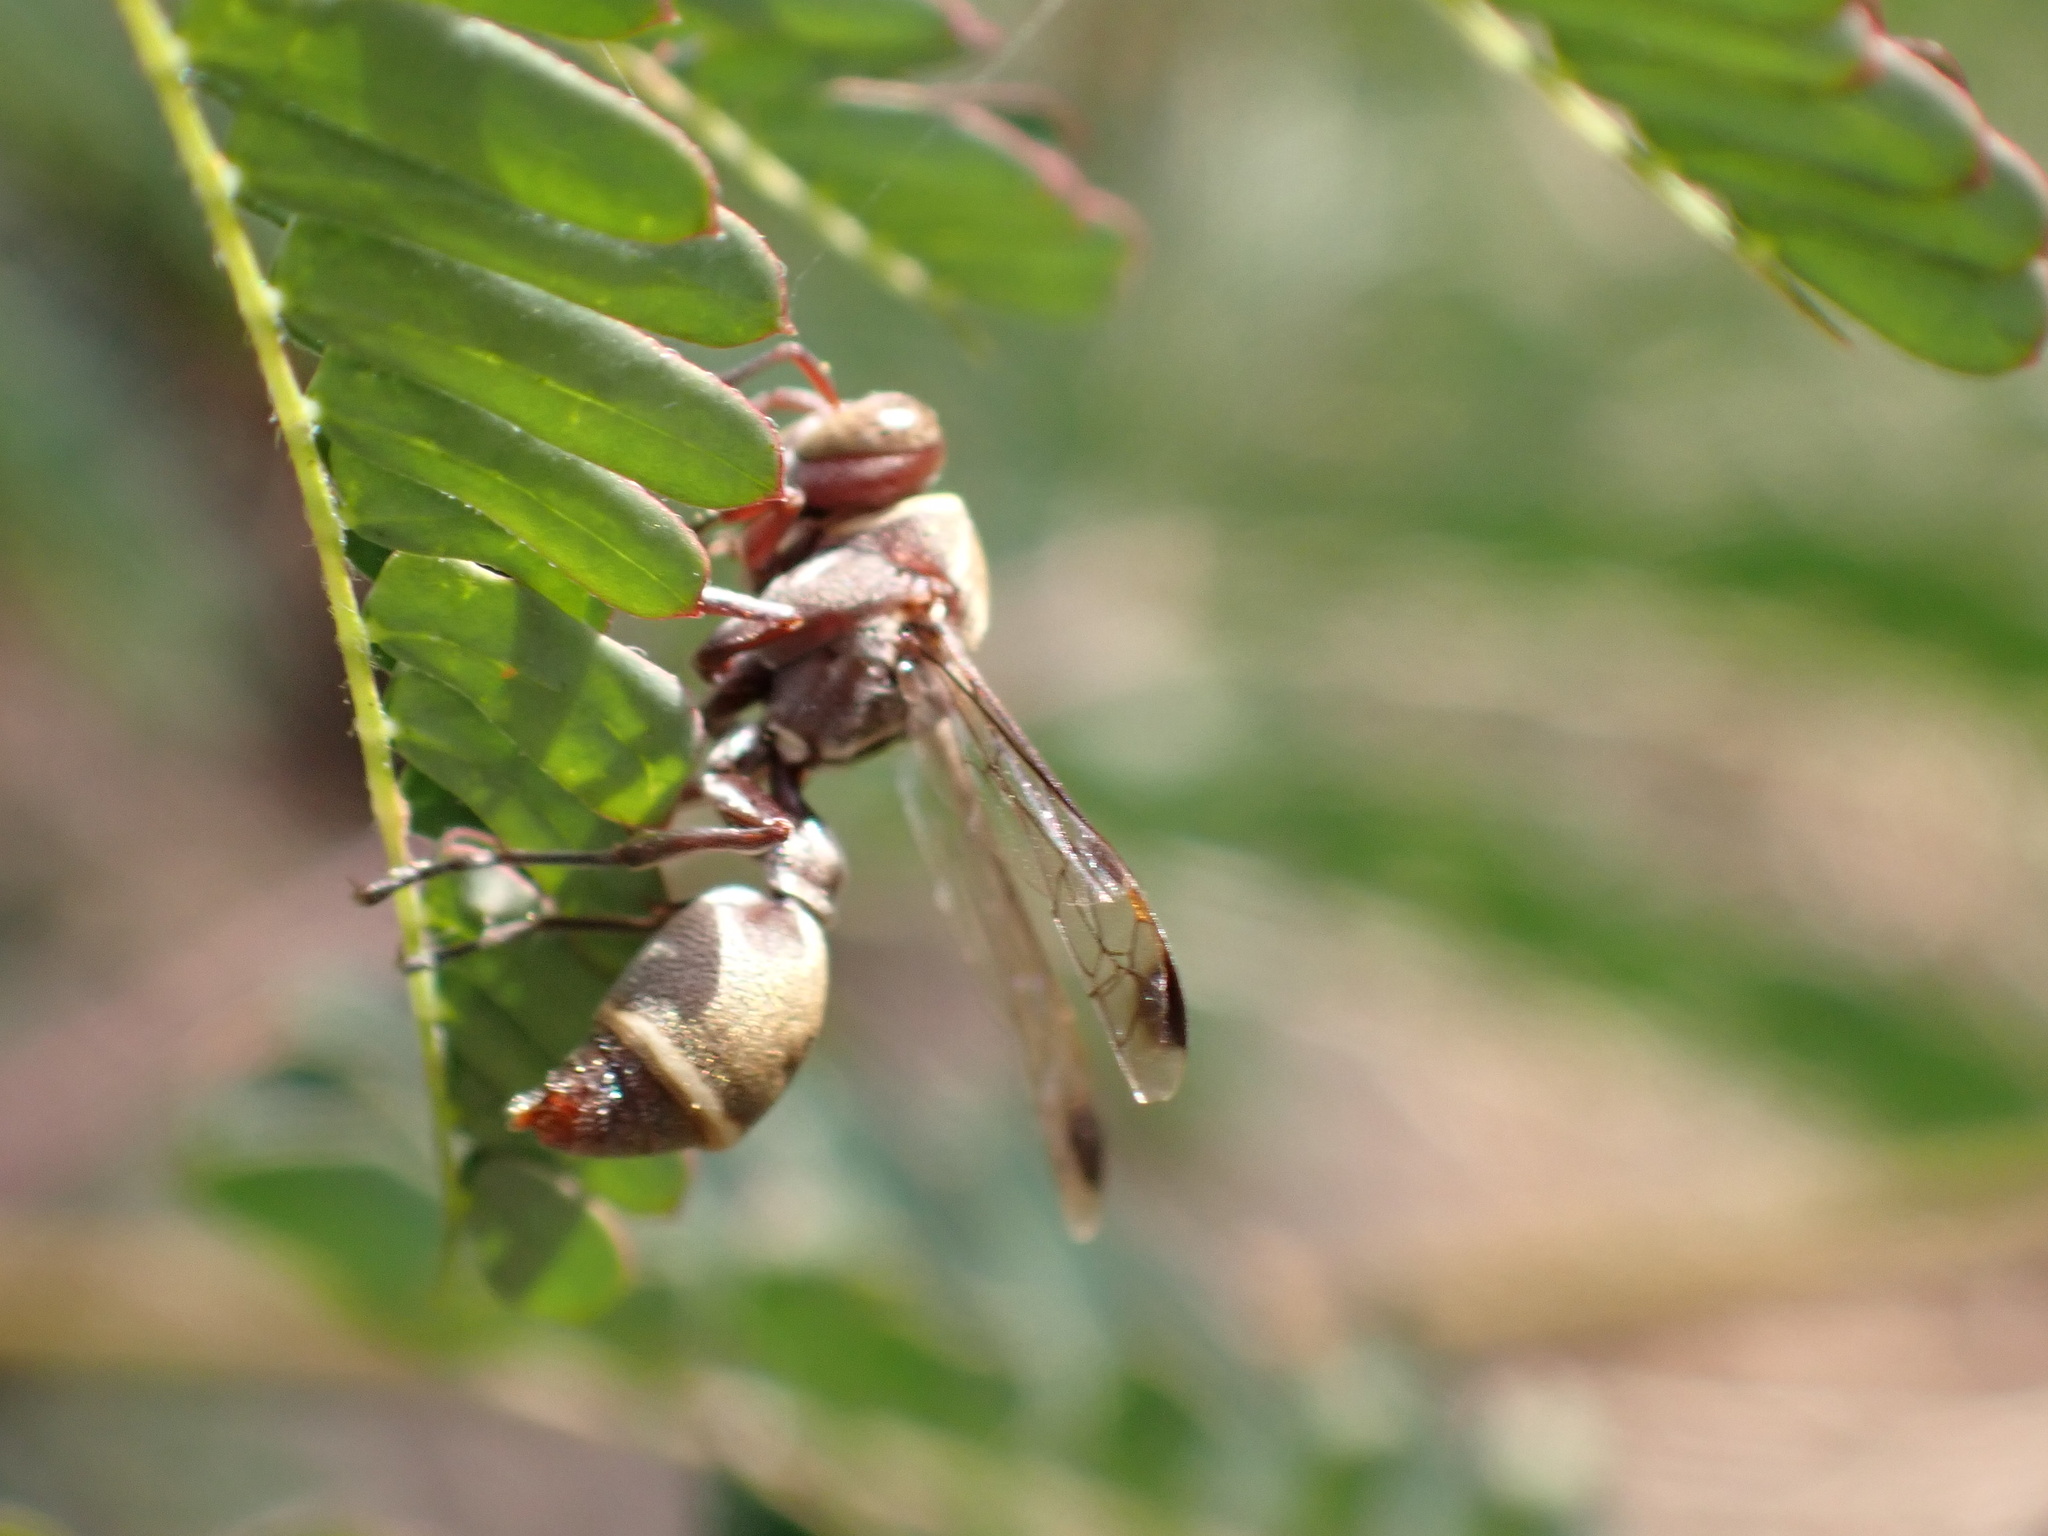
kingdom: Animalia
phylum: Arthropoda
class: Insecta
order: Hymenoptera
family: Vespidae
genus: Ropalidia
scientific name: Ropalidia aethiopica
